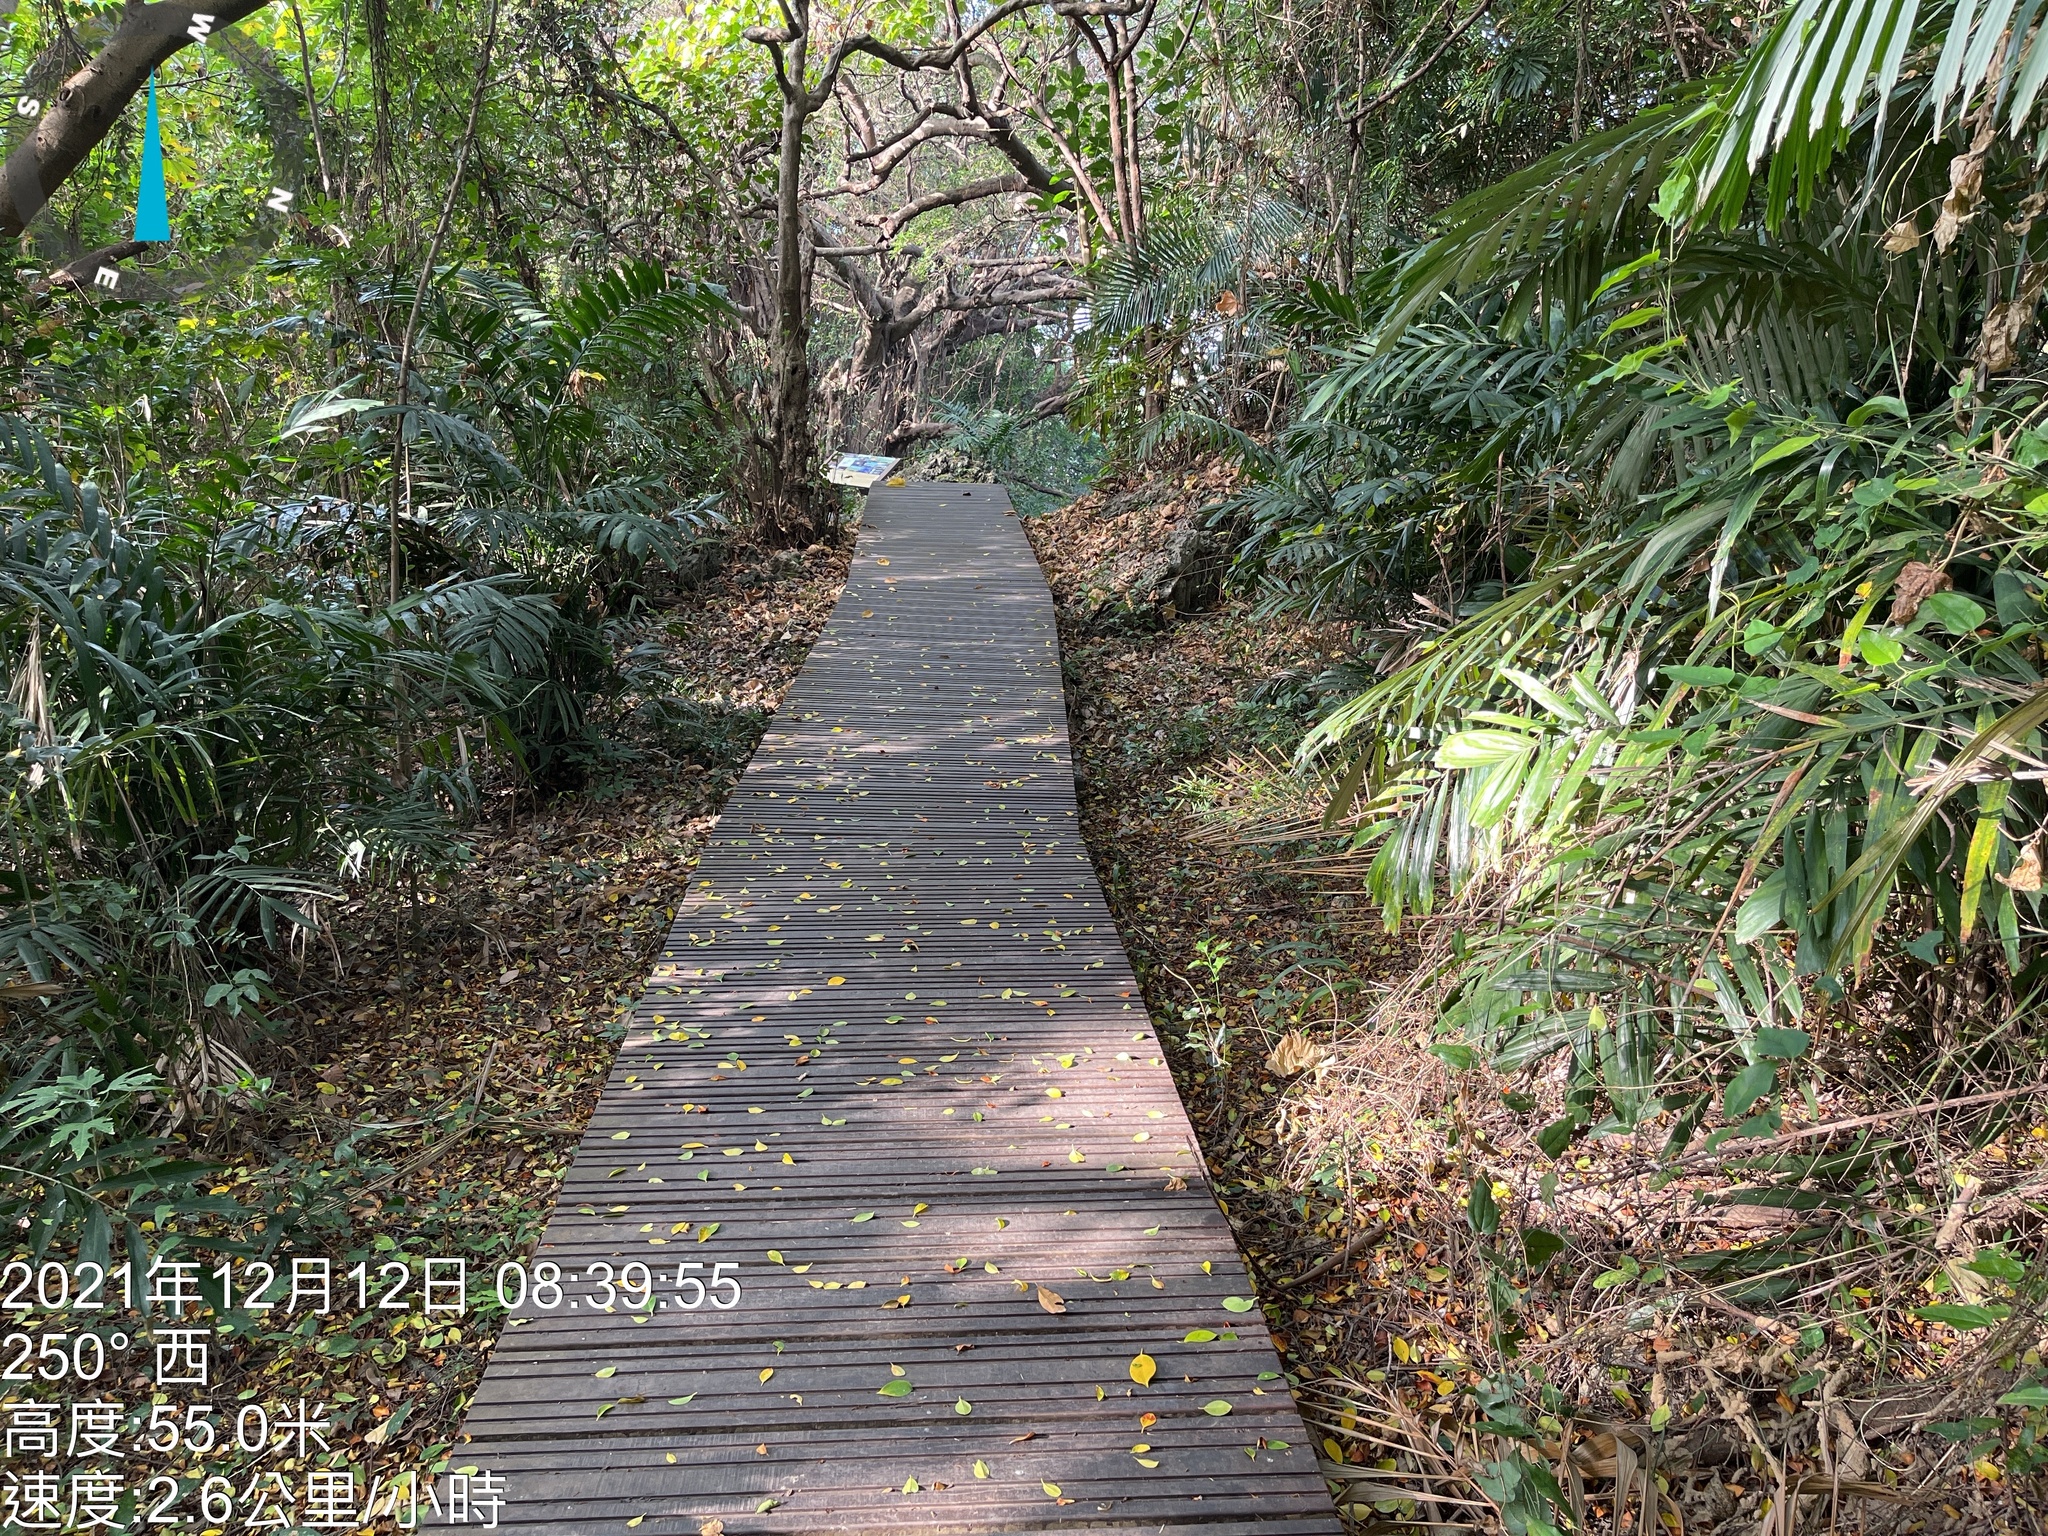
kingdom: Plantae
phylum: Tracheophyta
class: Liliopsida
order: Arecales
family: Arecaceae
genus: Arenga
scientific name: Arenga engleri
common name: Formosan sugar palm
